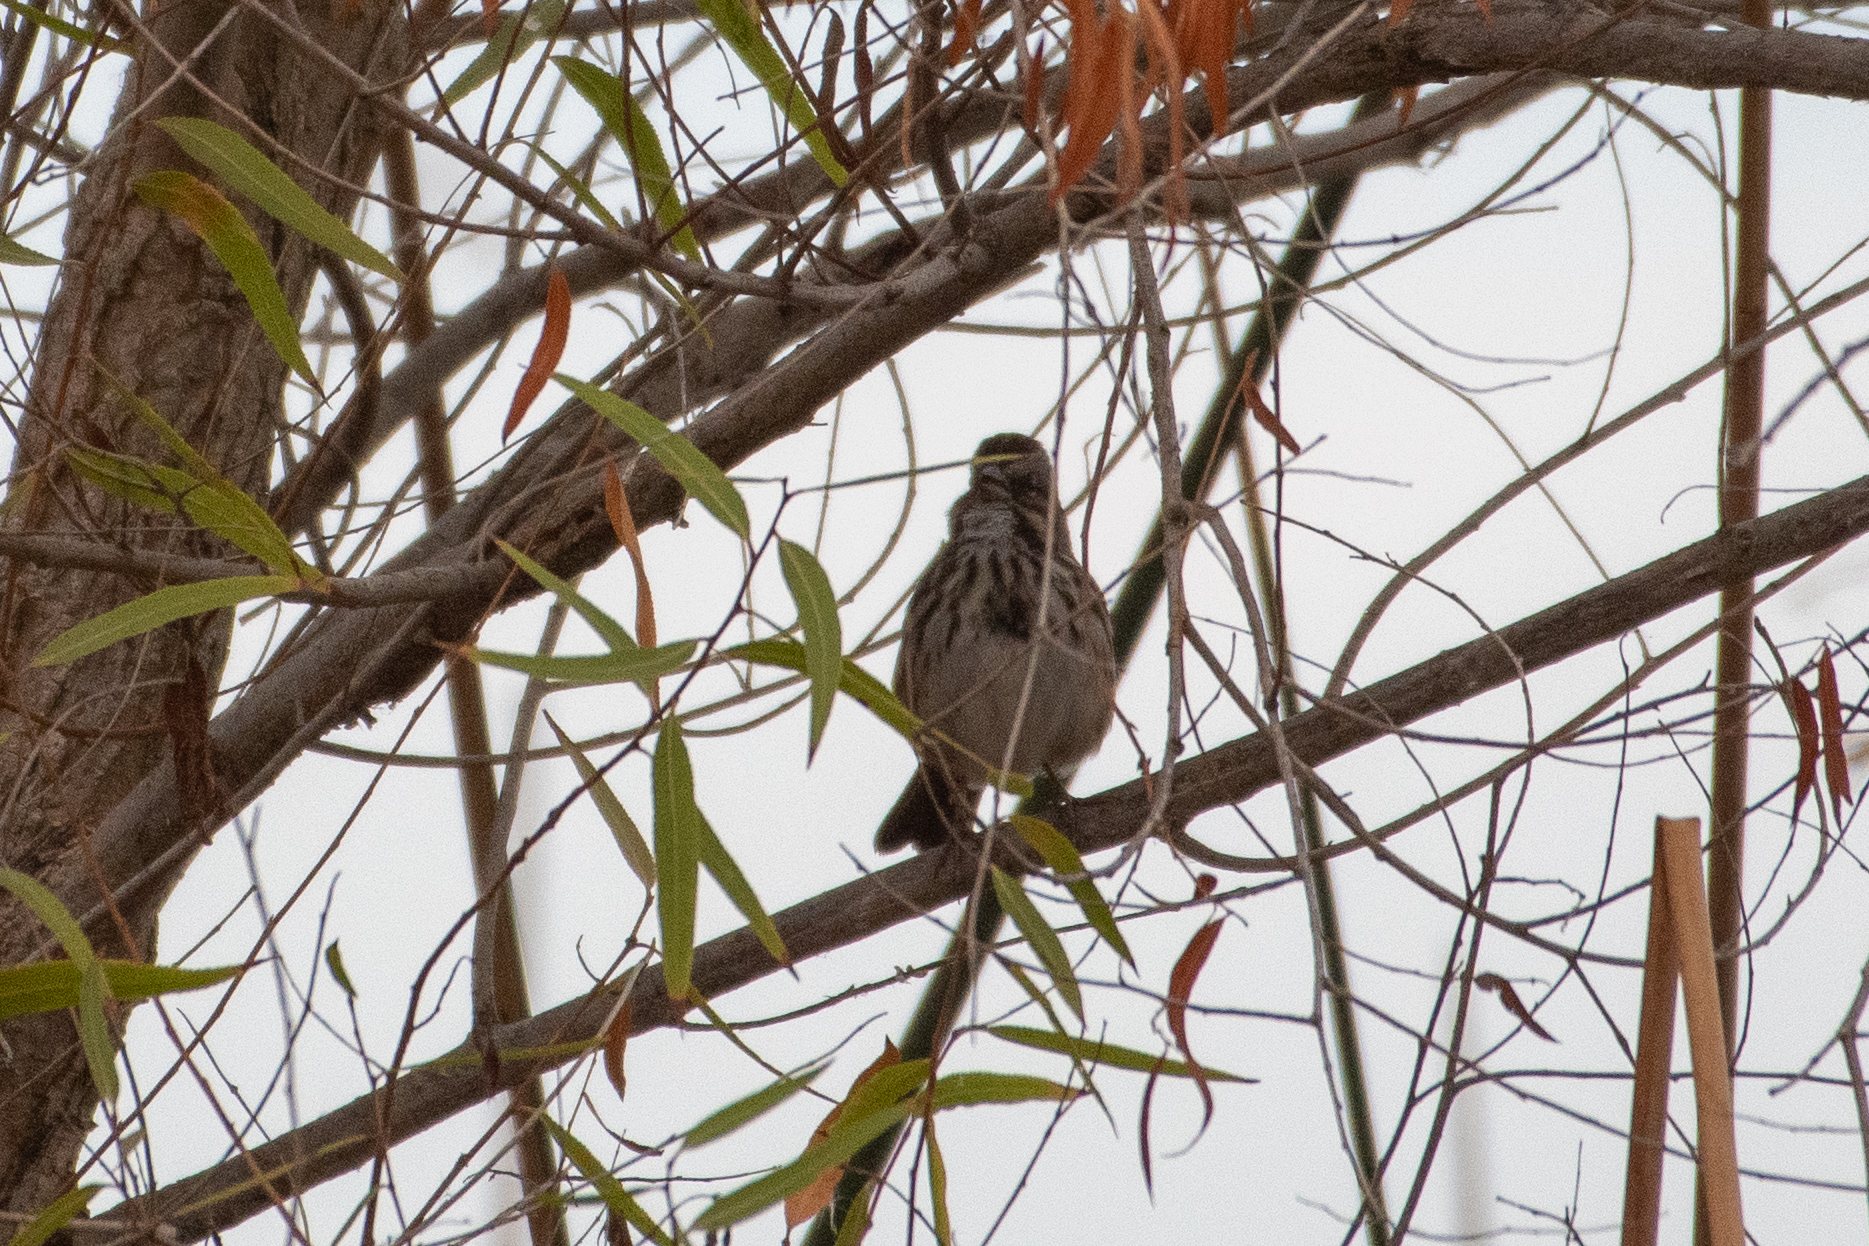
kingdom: Animalia
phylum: Chordata
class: Aves
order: Passeriformes
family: Passerellidae
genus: Melospiza
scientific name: Melospiza melodia
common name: Song sparrow
